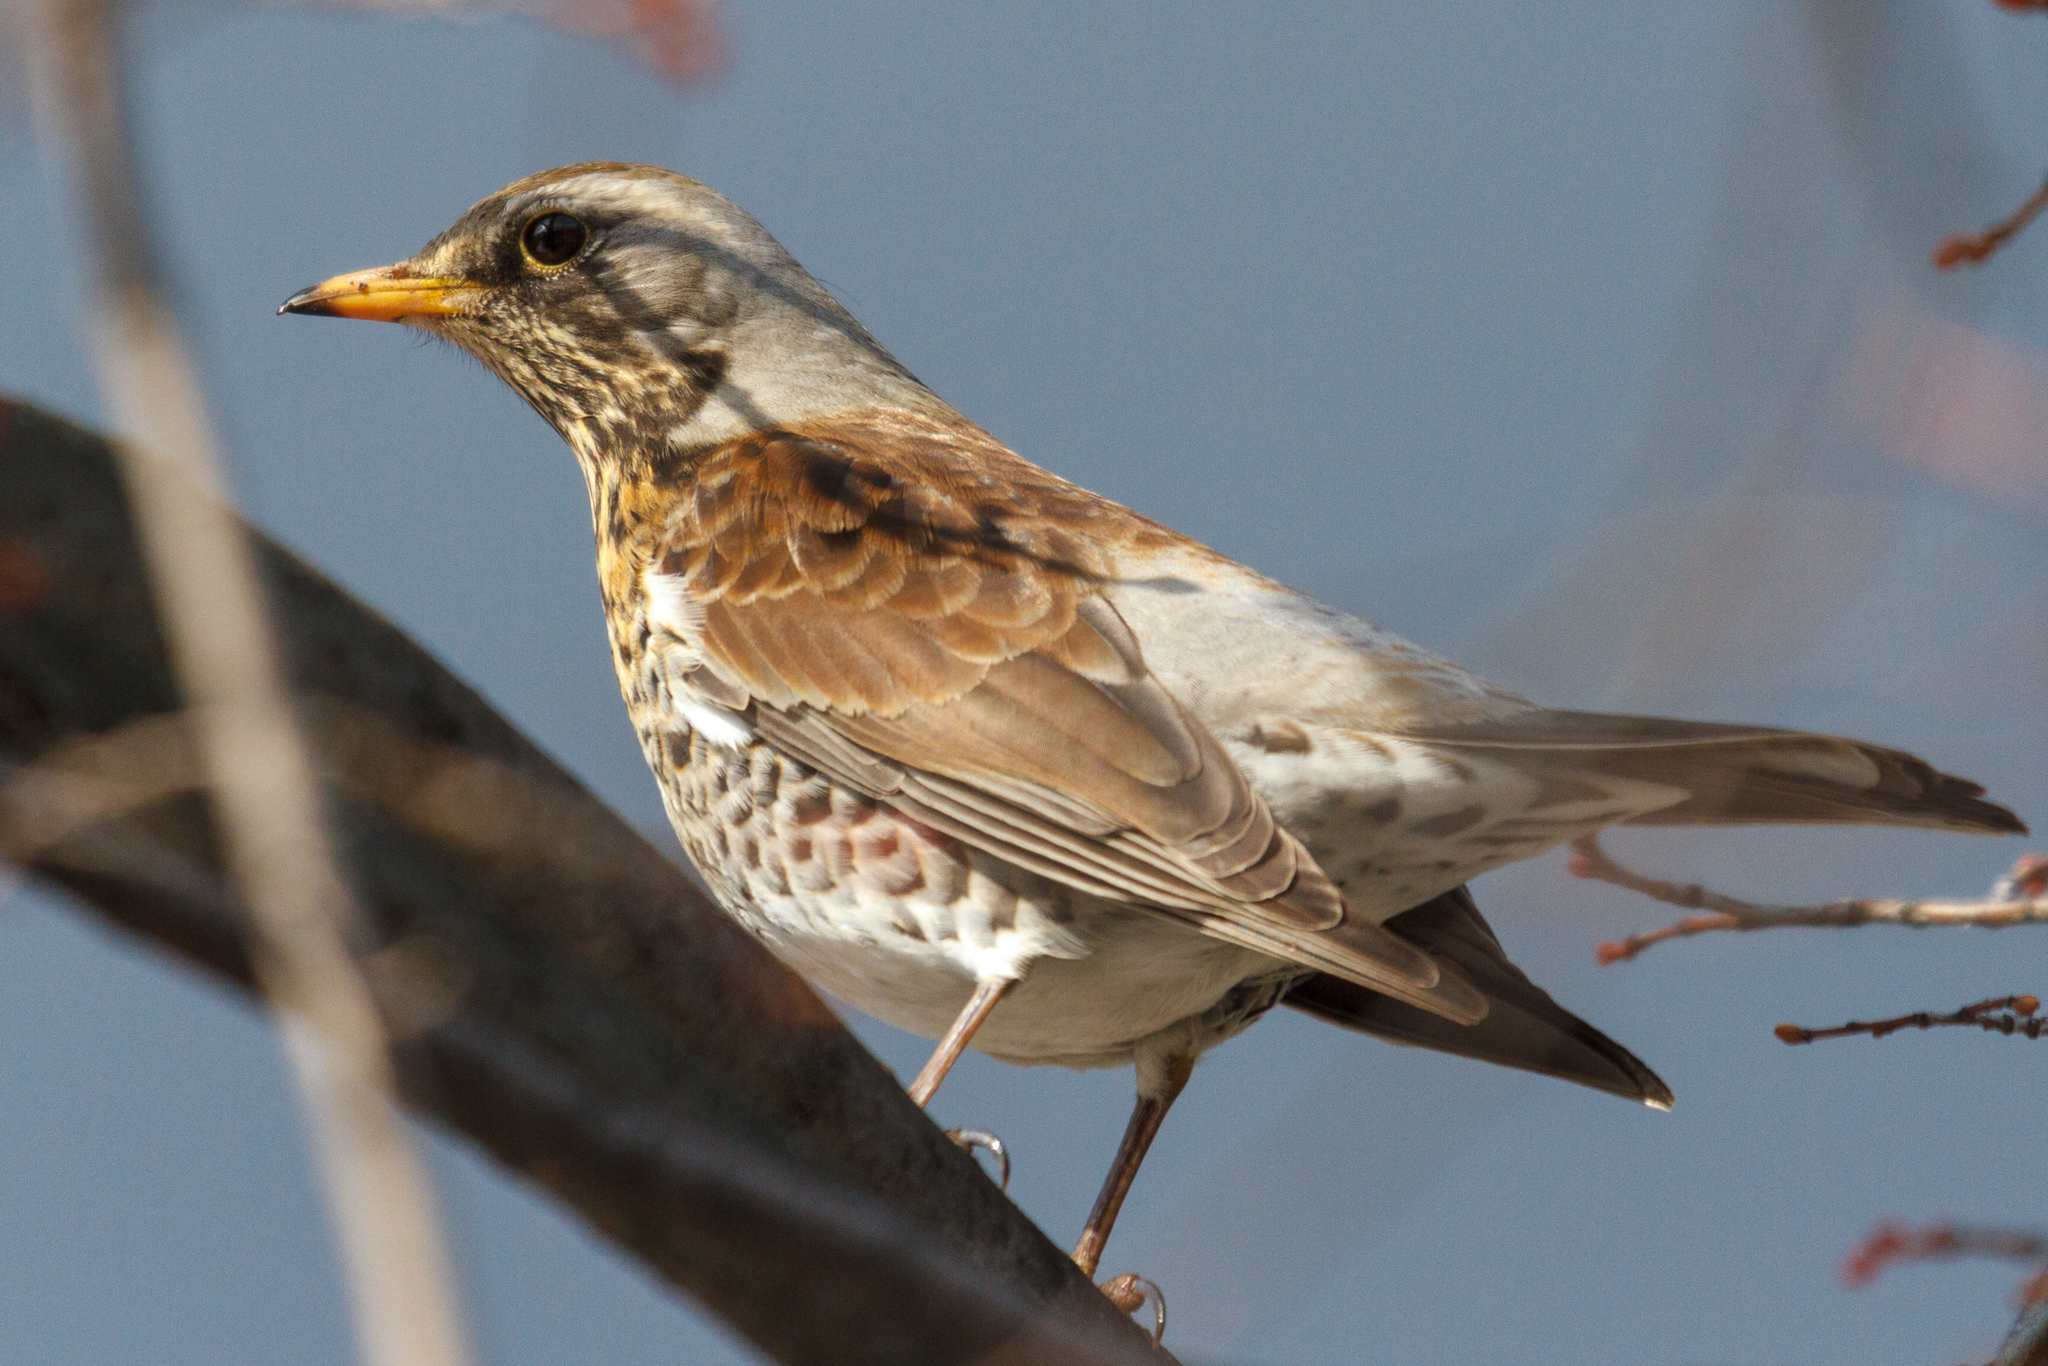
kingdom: Animalia
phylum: Chordata
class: Aves
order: Passeriformes
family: Turdidae
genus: Turdus
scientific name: Turdus pilaris
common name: Fieldfare
